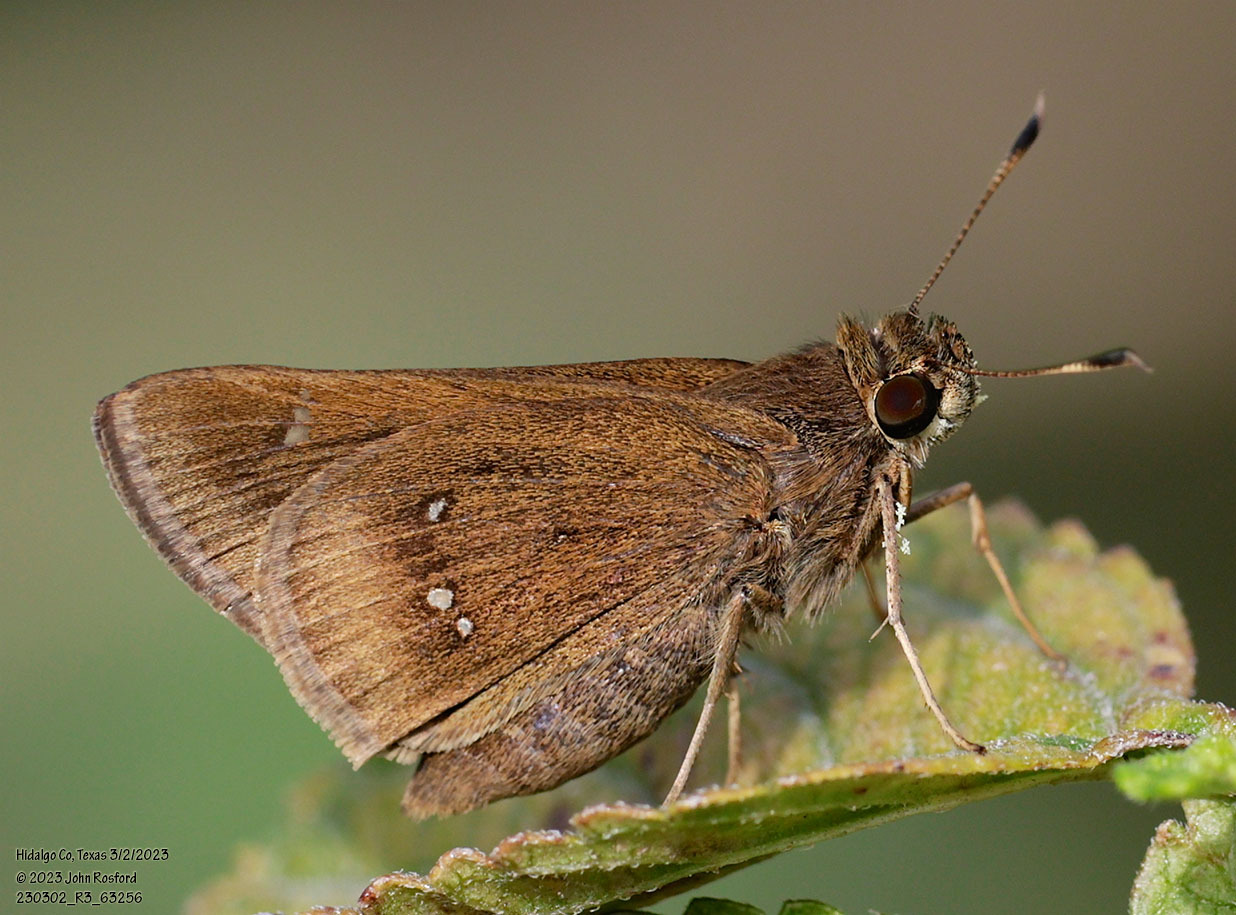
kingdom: Animalia
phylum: Arthropoda
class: Insecta
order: Lepidoptera
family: Hesperiidae
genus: Decinea
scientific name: Decinea percosius
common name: Double-dotted skipper
